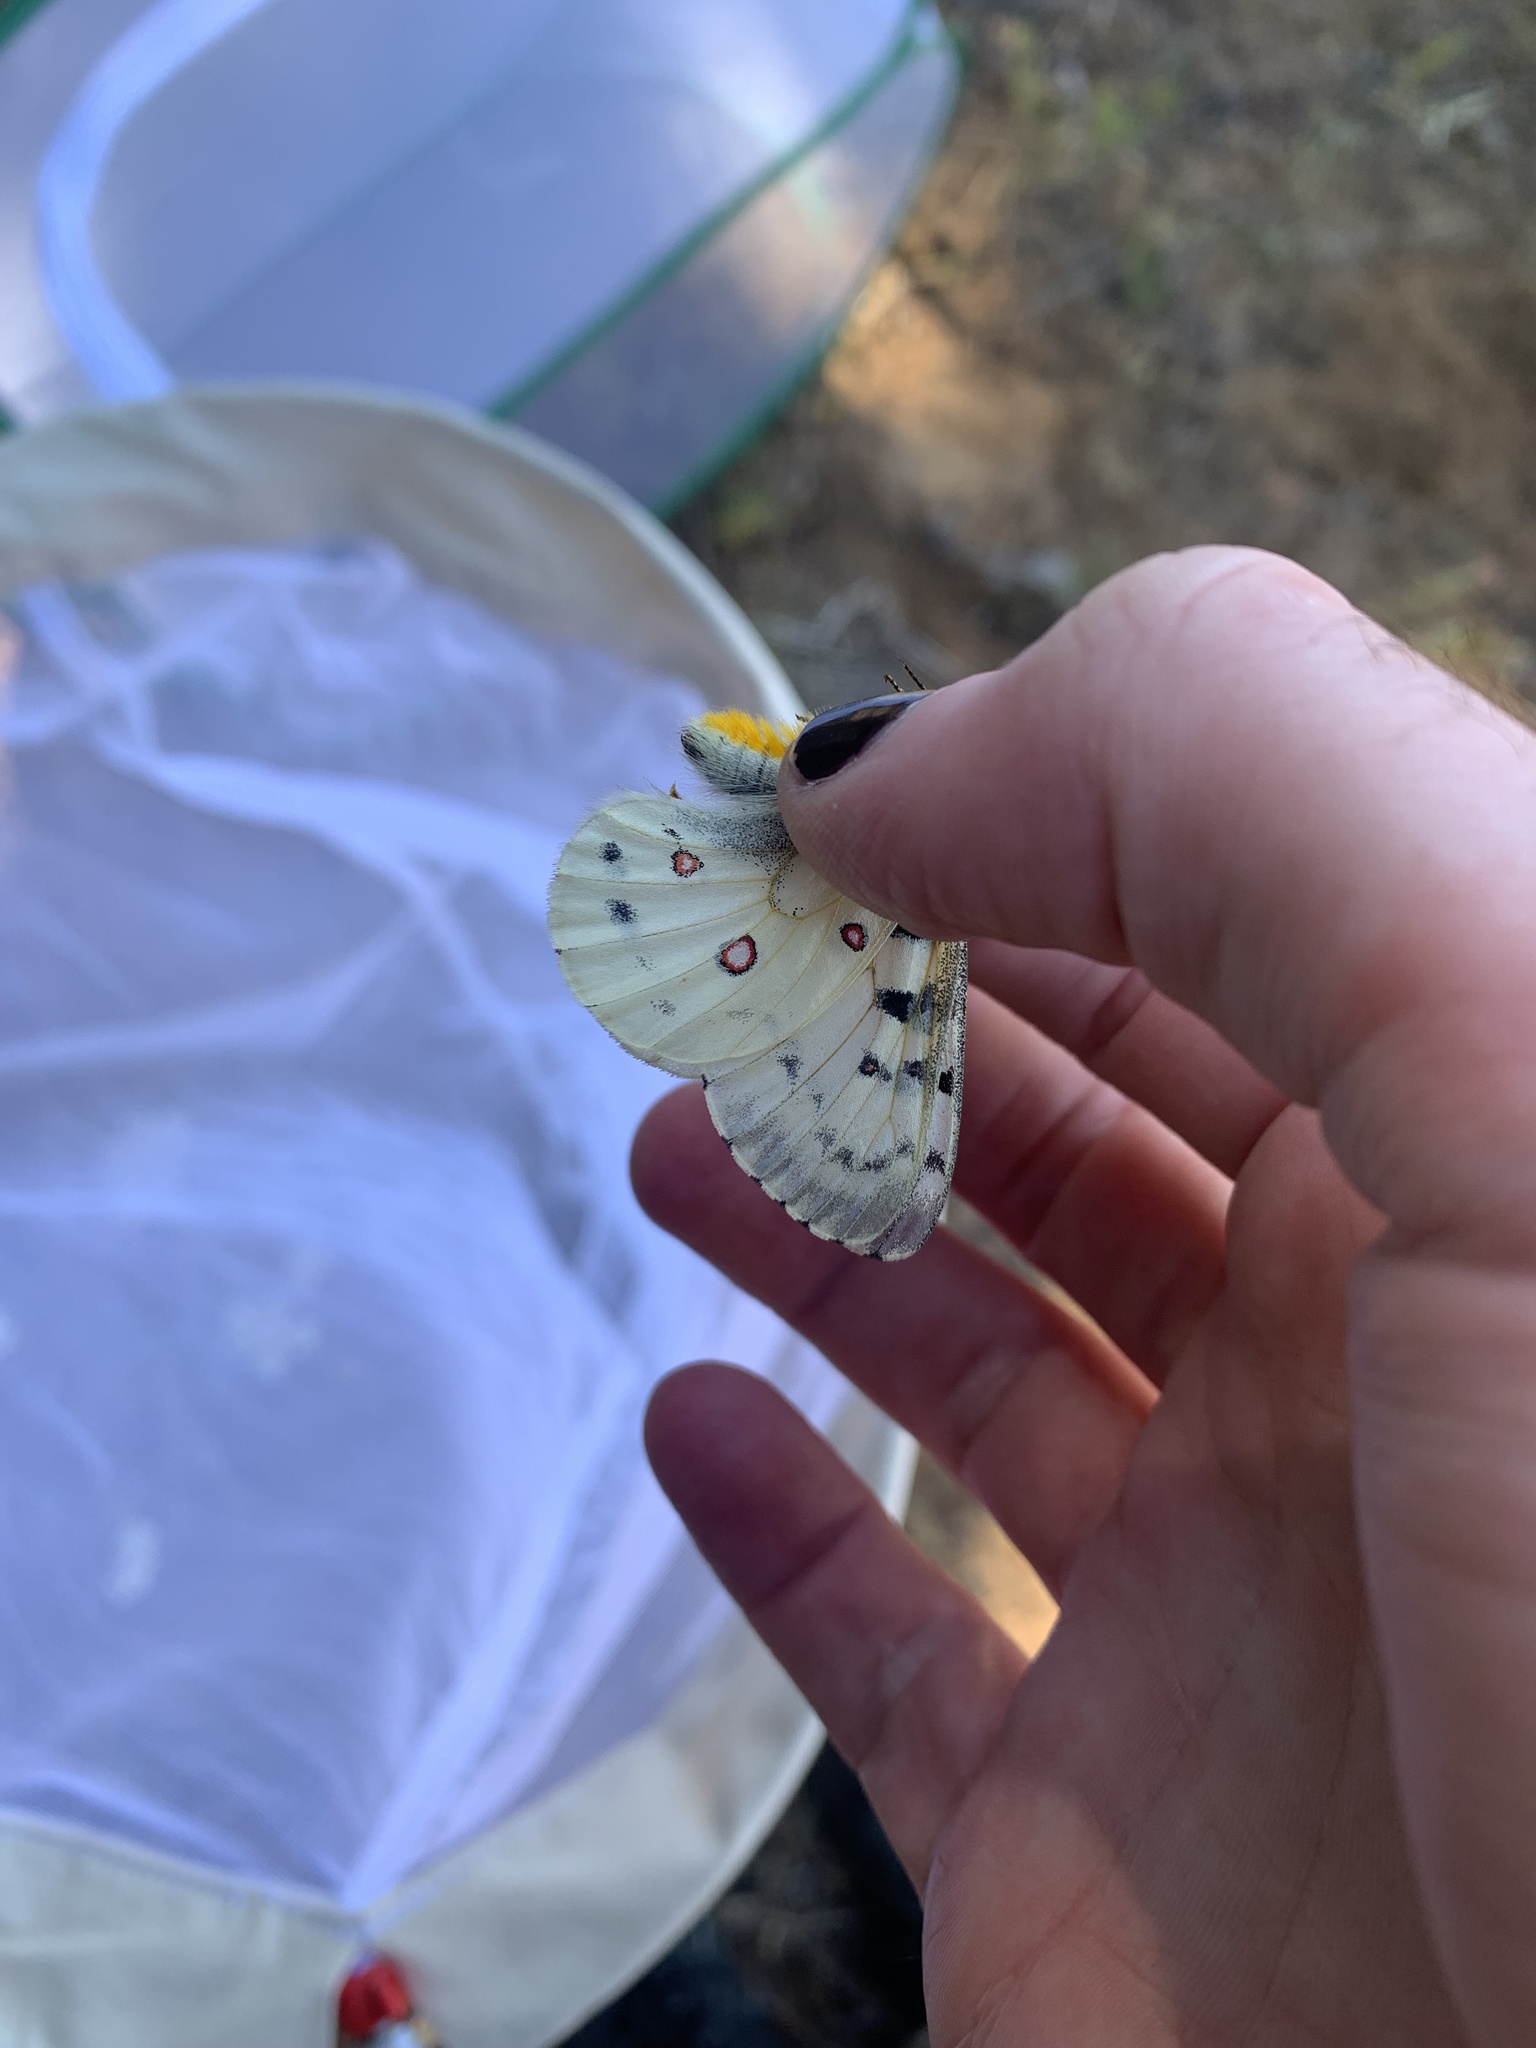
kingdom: Animalia
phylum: Arthropoda
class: Insecta
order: Lepidoptera
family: Papilionidae
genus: Parnassius
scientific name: Parnassius smintheus
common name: Mountain parnassian
